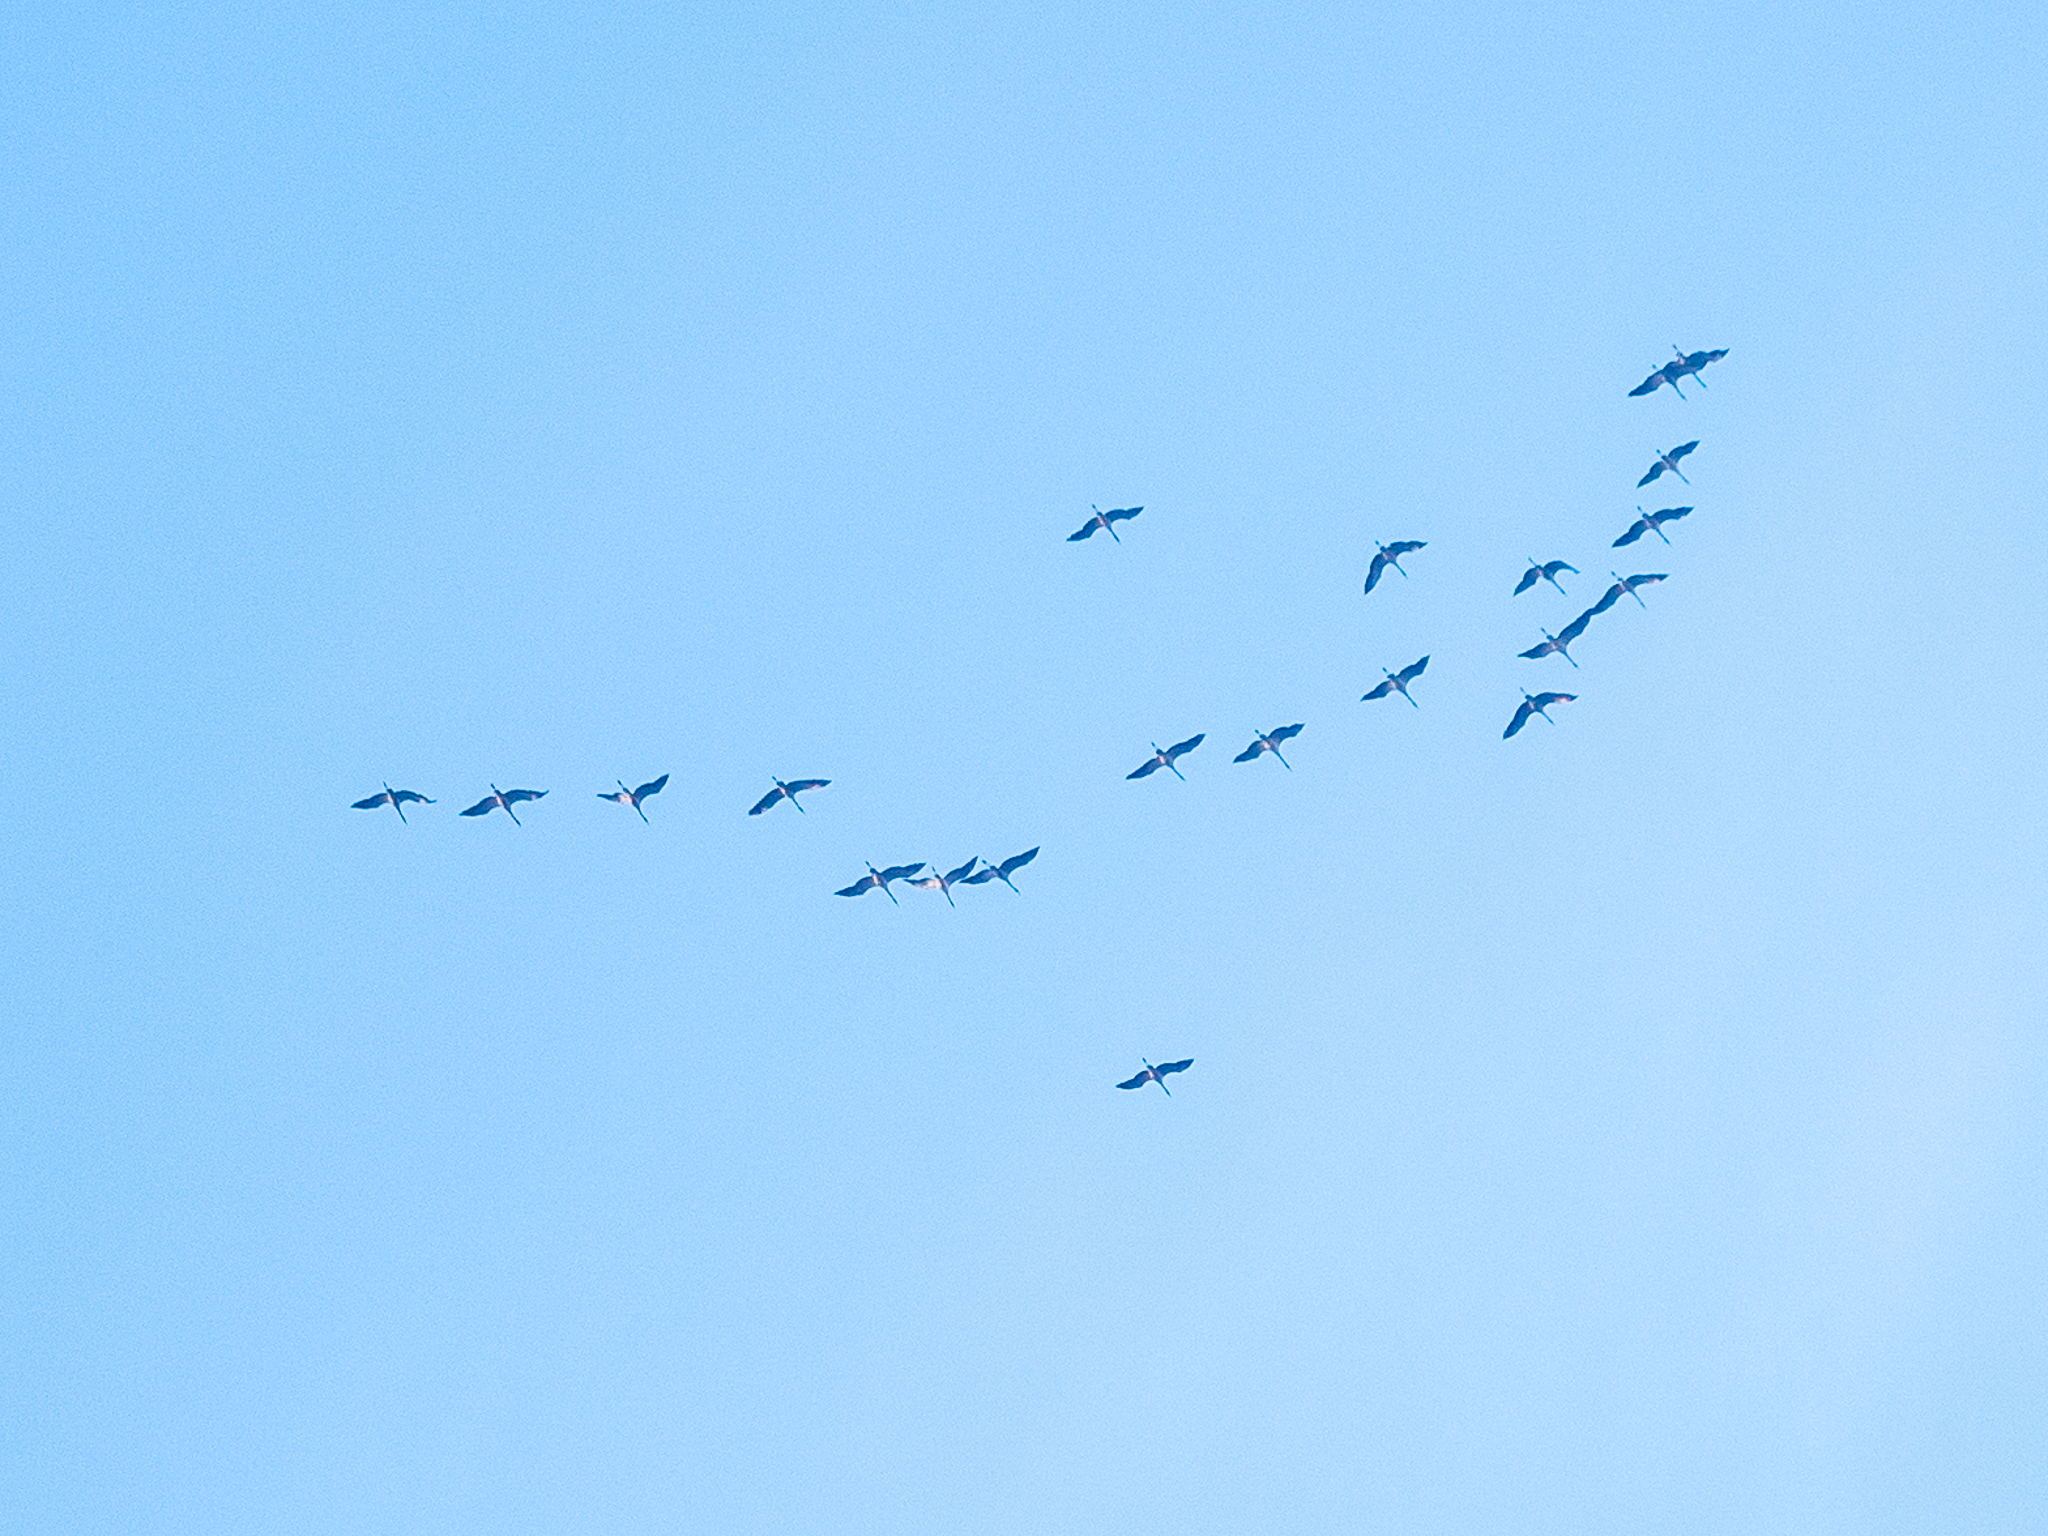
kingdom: Animalia
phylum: Chordata
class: Aves
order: Gruiformes
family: Gruidae
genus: Grus
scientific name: Grus grus
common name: Common crane
